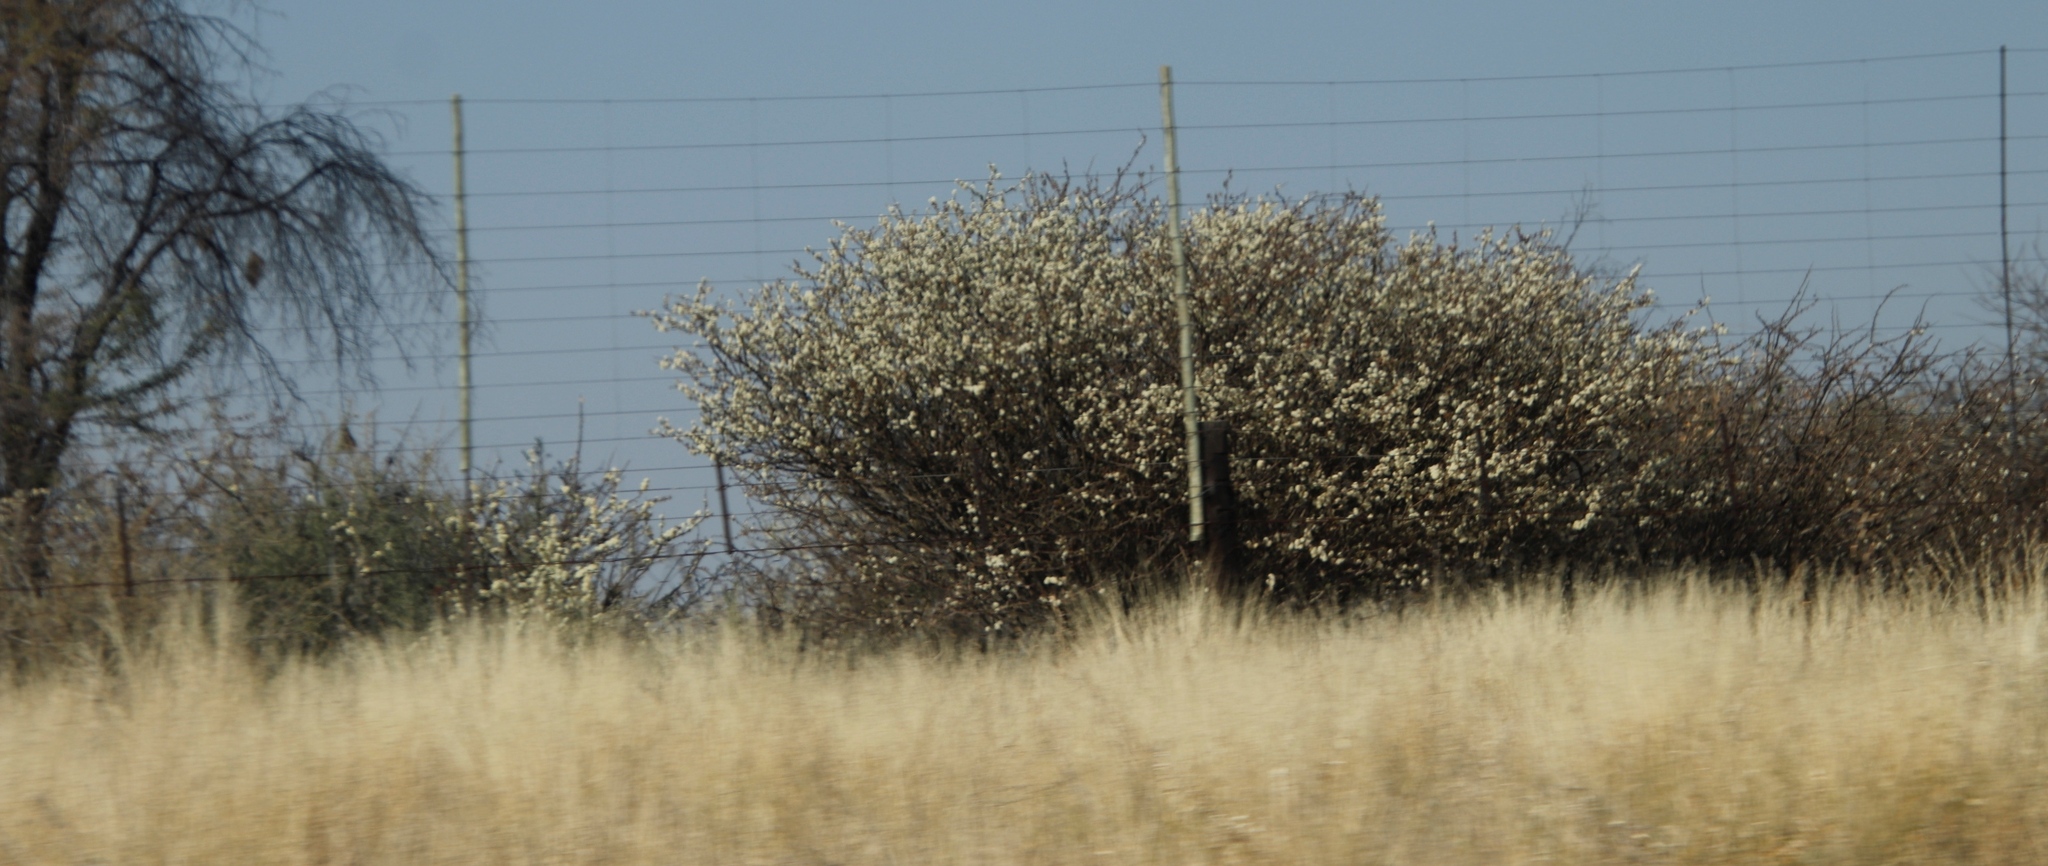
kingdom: Plantae
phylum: Tracheophyta
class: Magnoliopsida
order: Fabales
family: Fabaceae
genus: Senegalia
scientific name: Senegalia mellifera
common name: Hookthorn
